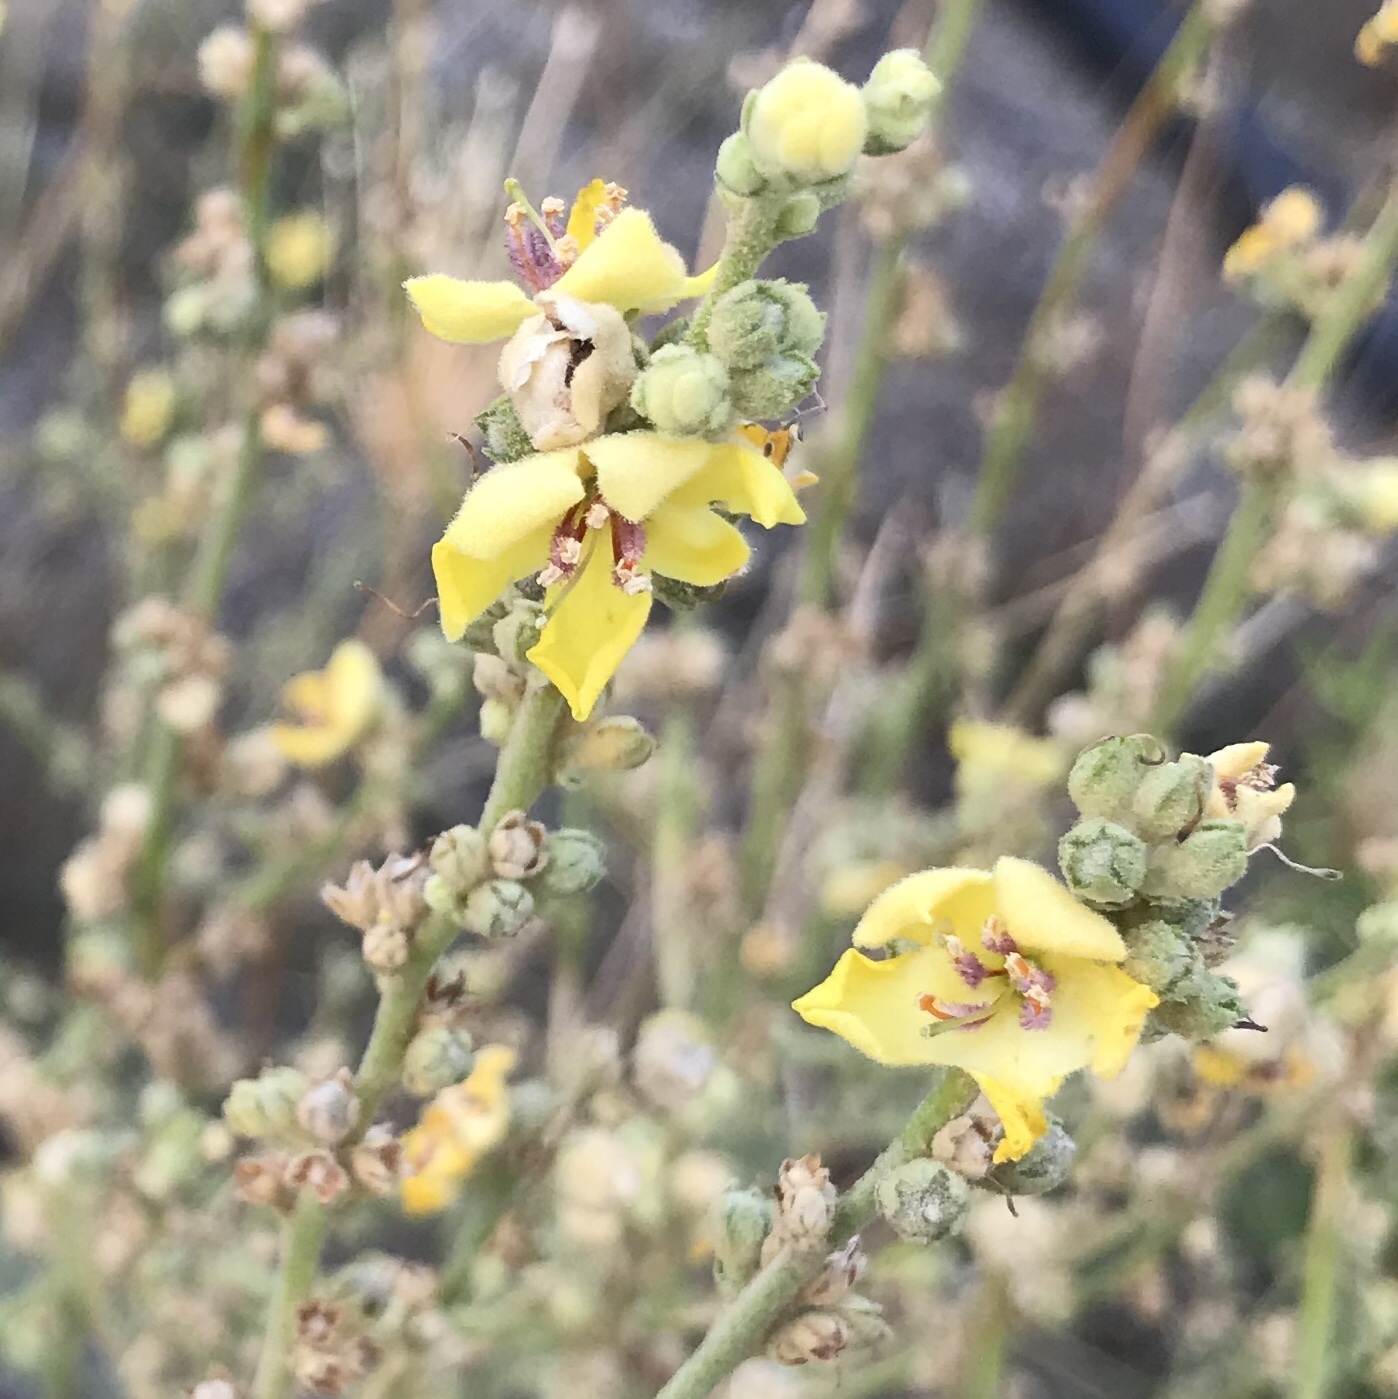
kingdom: Plantae
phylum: Tracheophyta
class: Magnoliopsida
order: Lamiales
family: Scrophulariaceae
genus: Verbascum
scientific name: Verbascum sinuatum
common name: Wavyleaf mullein
